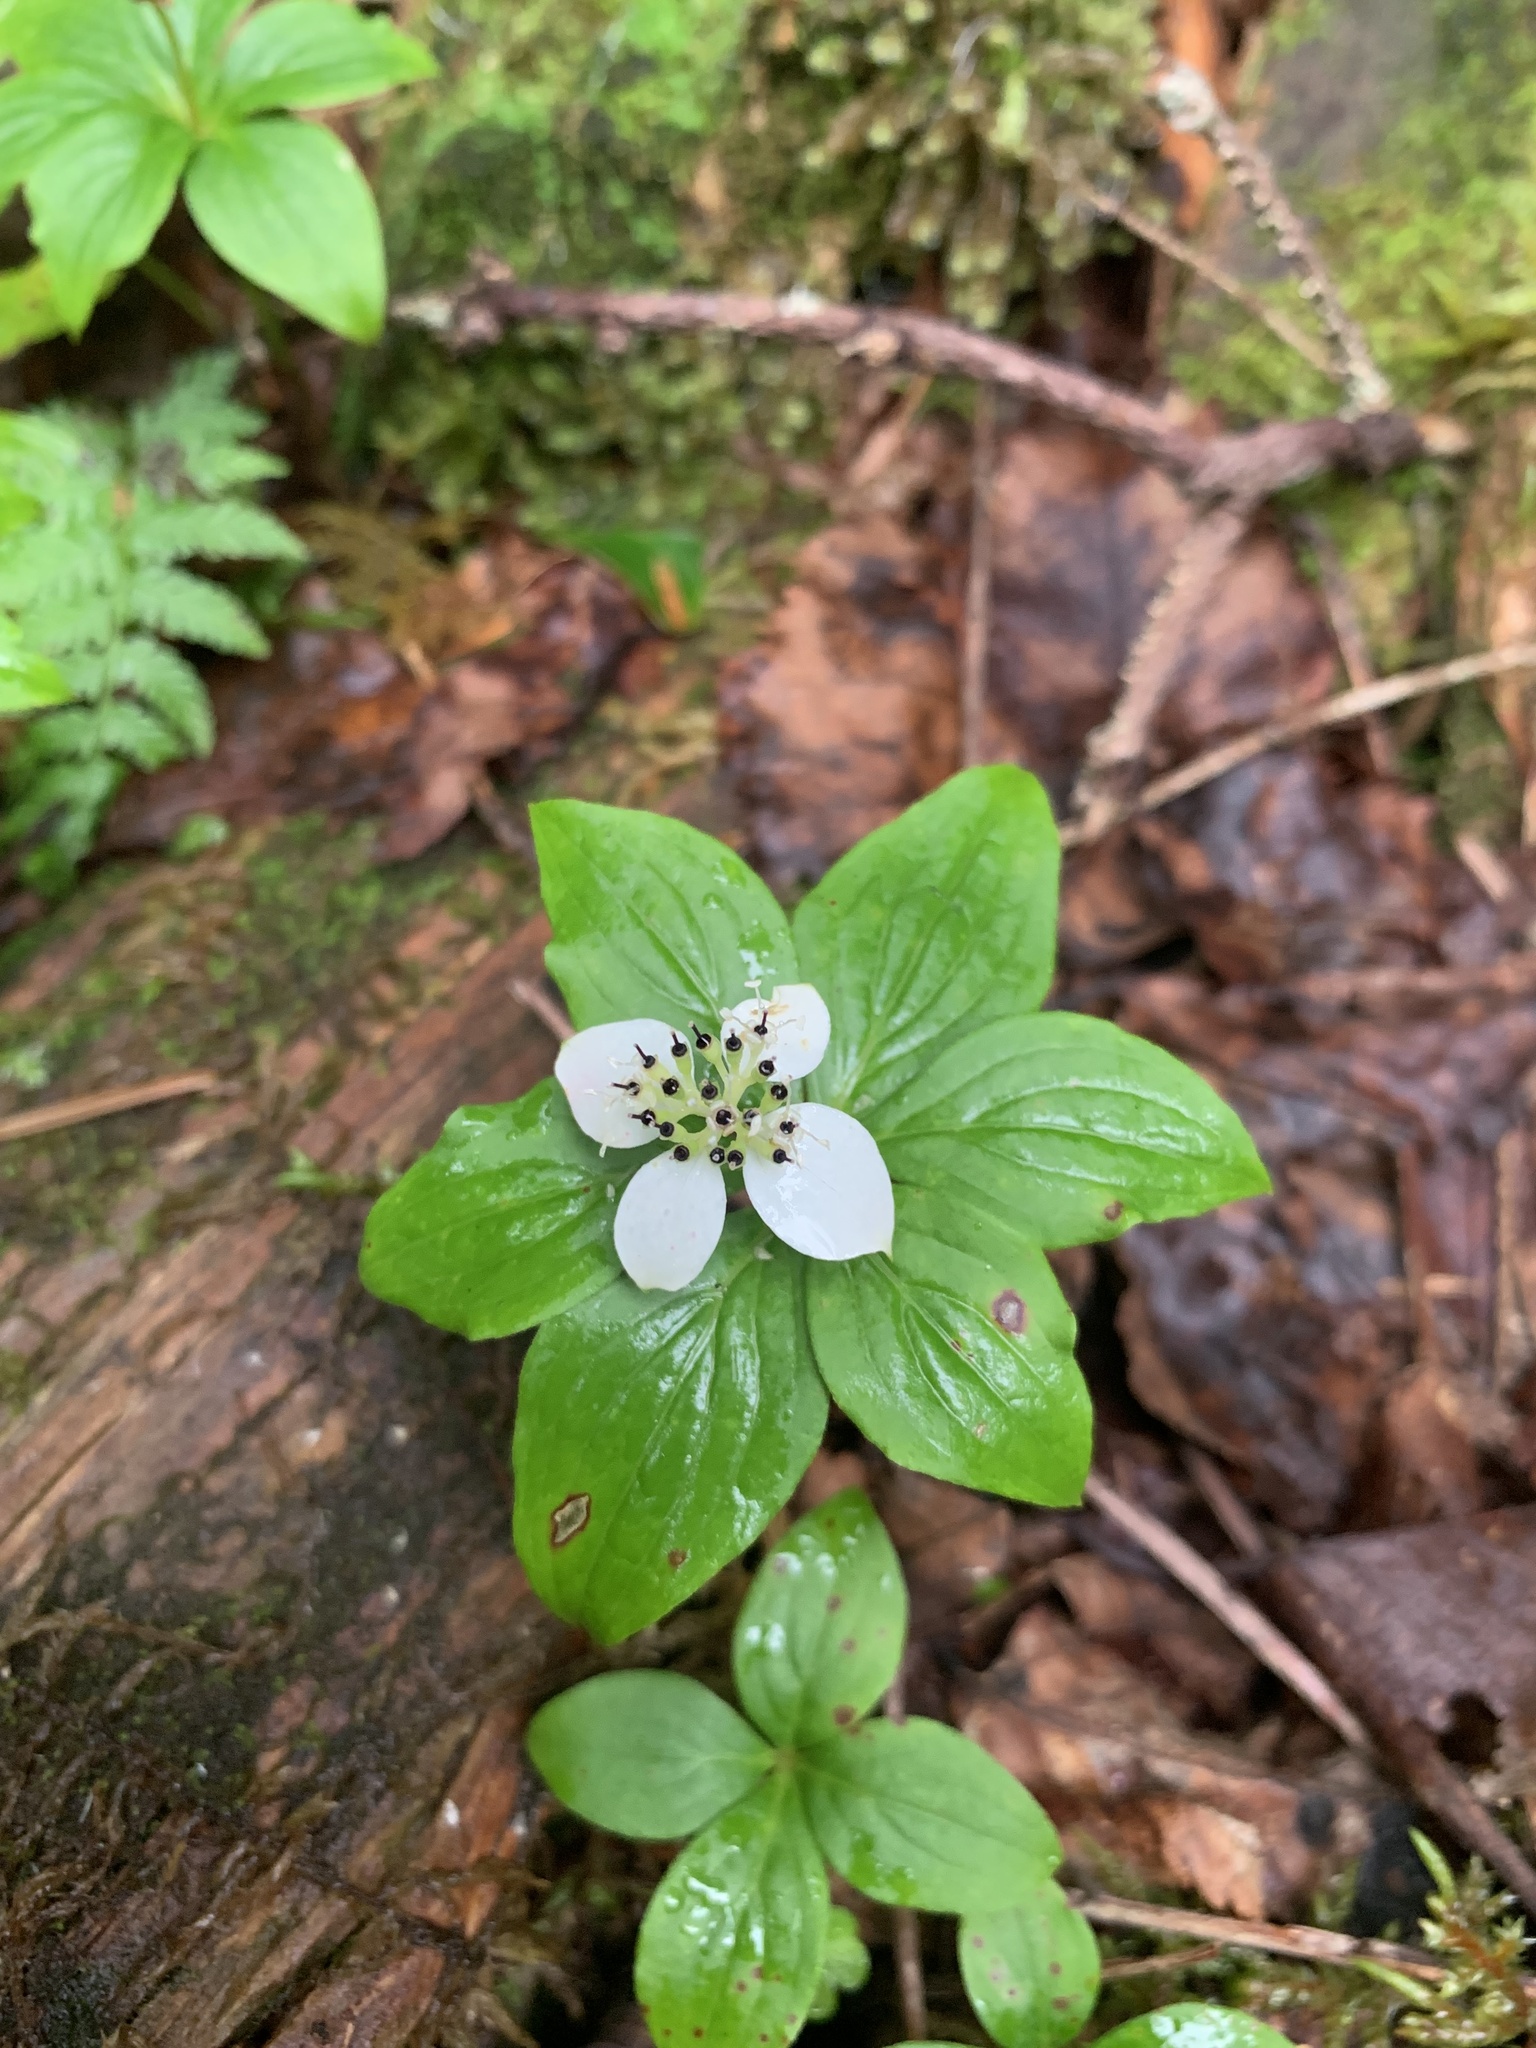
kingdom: Plantae
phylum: Tracheophyta
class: Magnoliopsida
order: Cornales
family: Cornaceae
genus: Cornus
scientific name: Cornus canadensis
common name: Creeping dogwood
